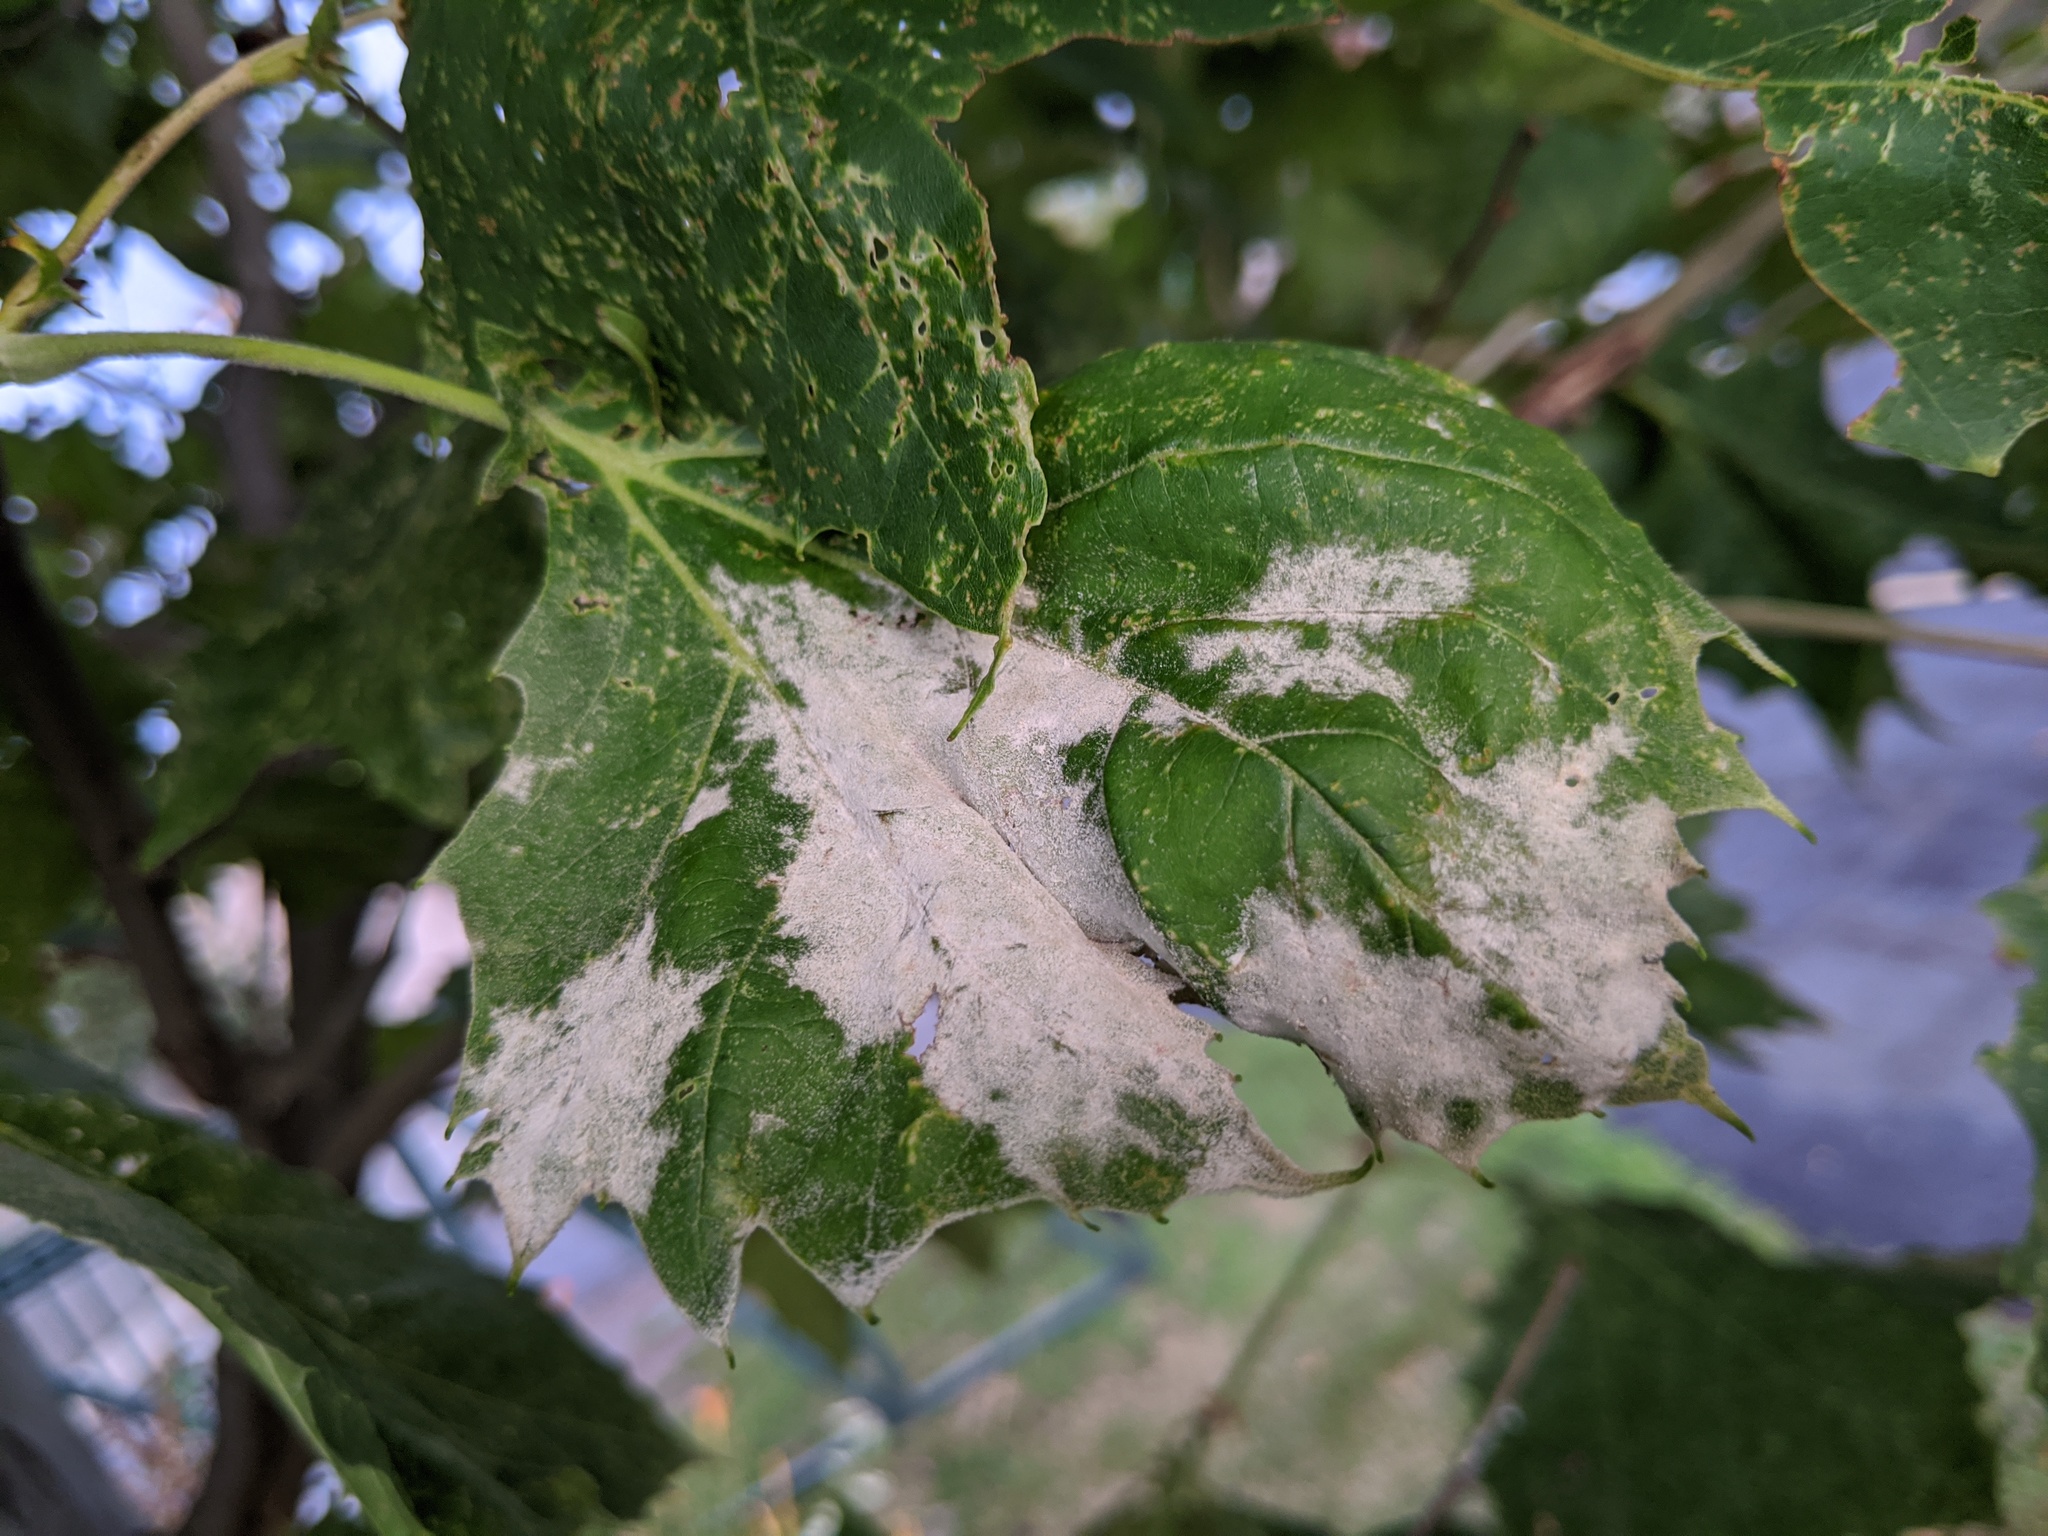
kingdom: Fungi
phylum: Ascomycota
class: Leotiomycetes
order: Helotiales
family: Erysiphaceae
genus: Erysiphe
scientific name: Erysiphe platani
